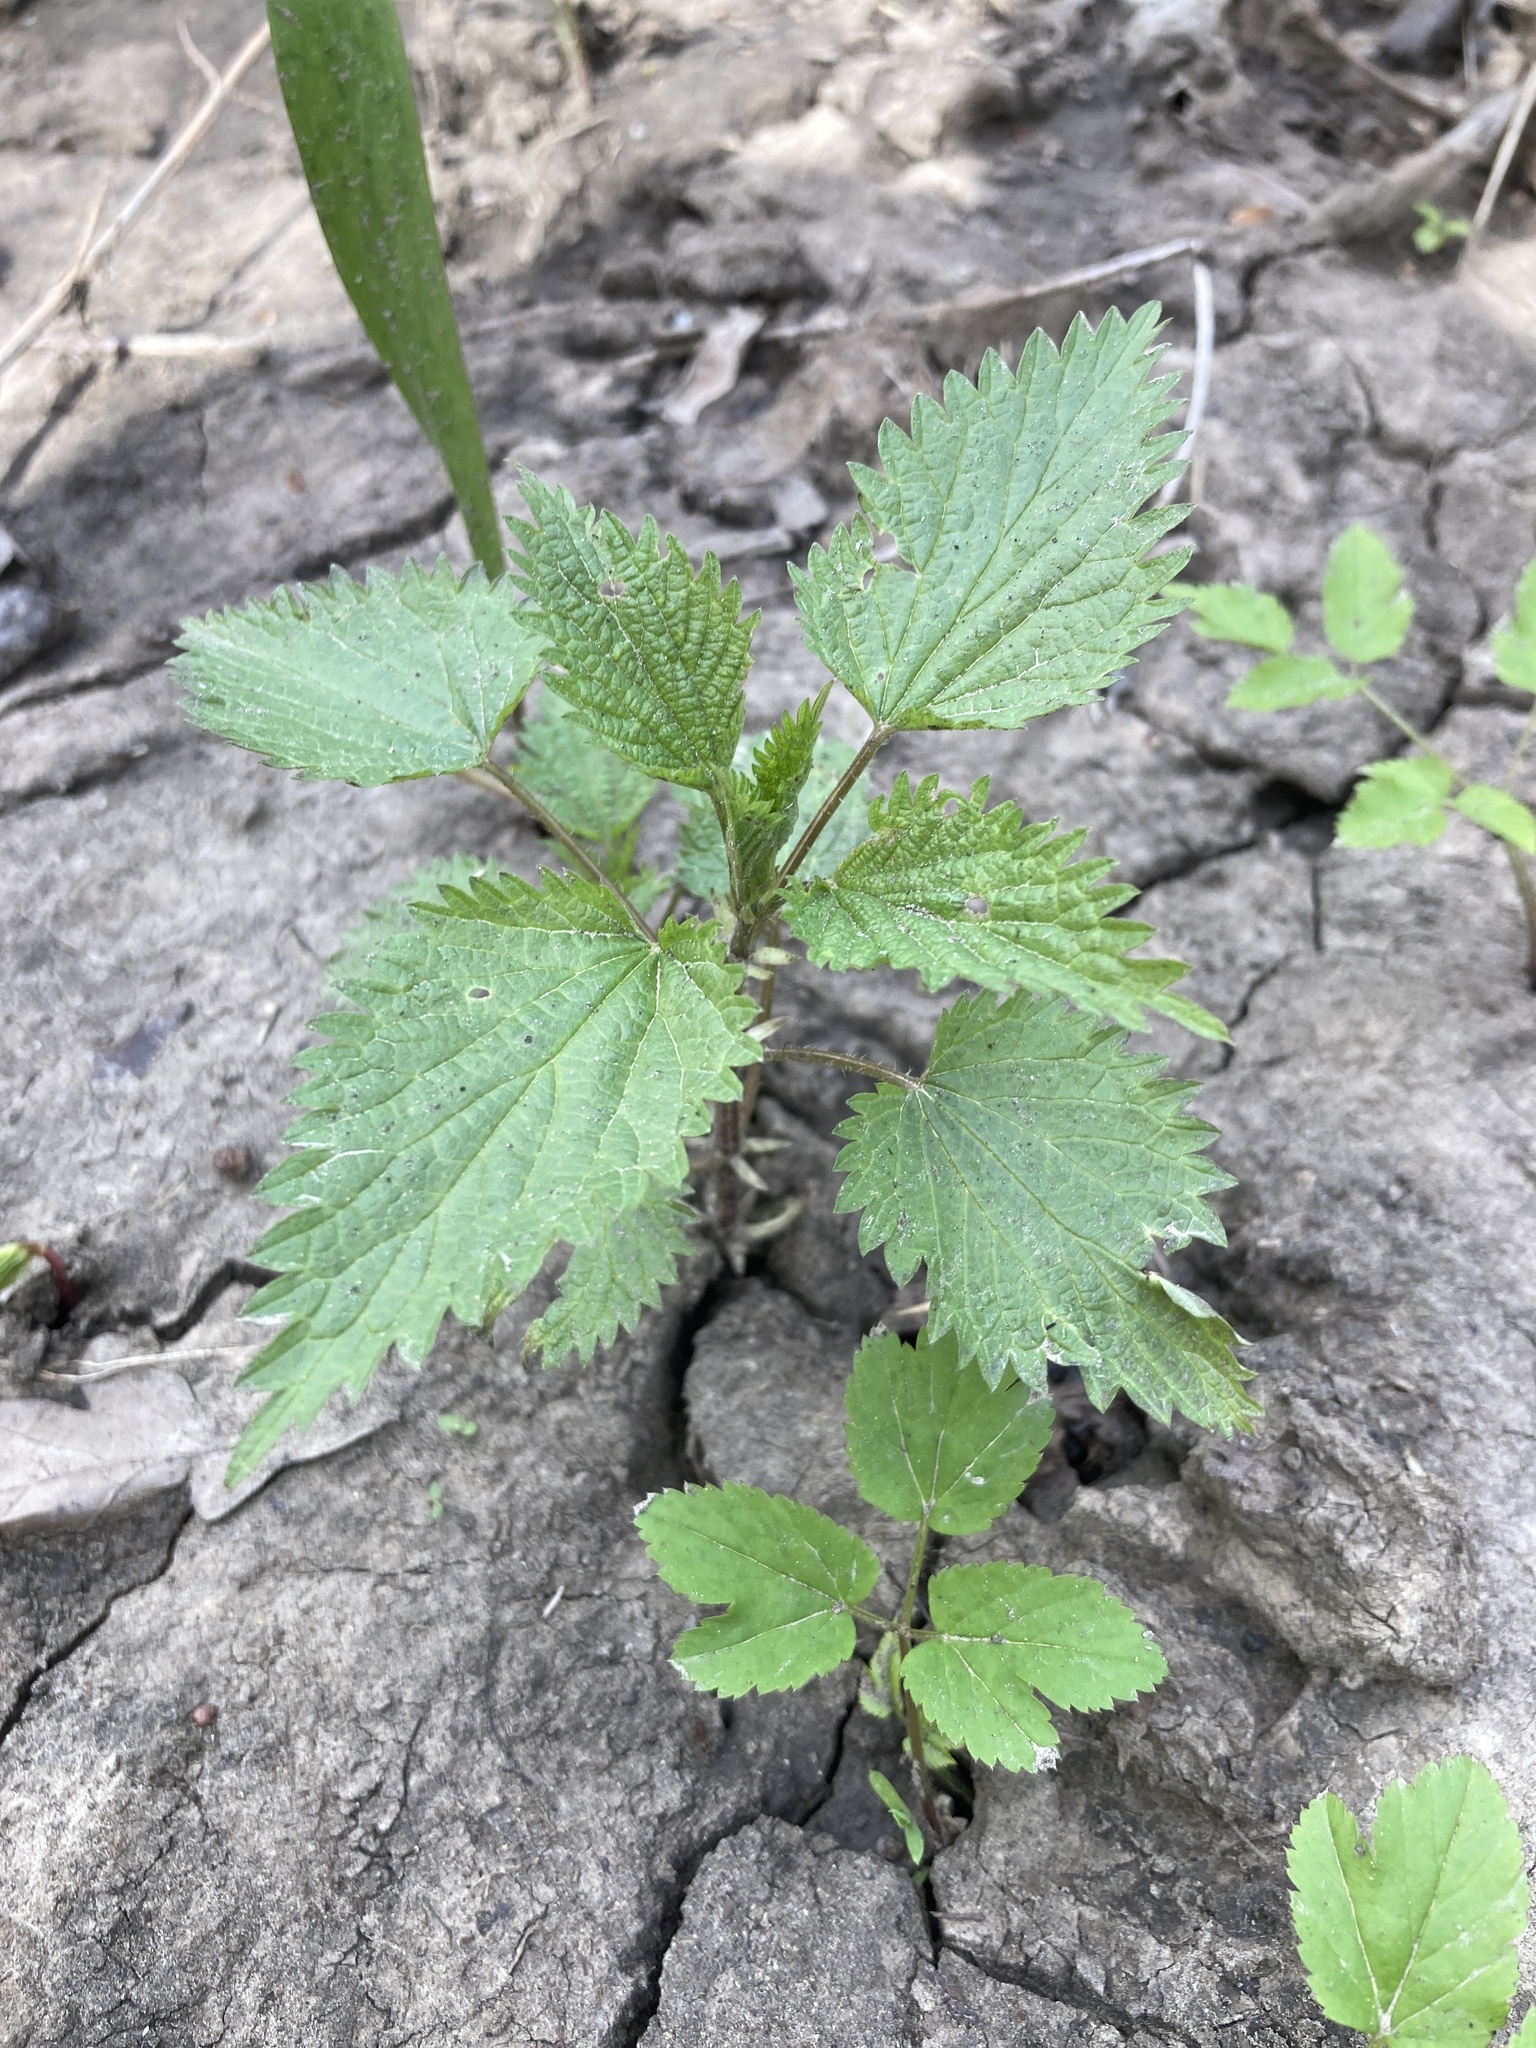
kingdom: Plantae
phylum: Tracheophyta
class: Magnoliopsida
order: Rosales
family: Urticaceae
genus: Urtica
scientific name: Urtica dioica
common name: Common nettle
